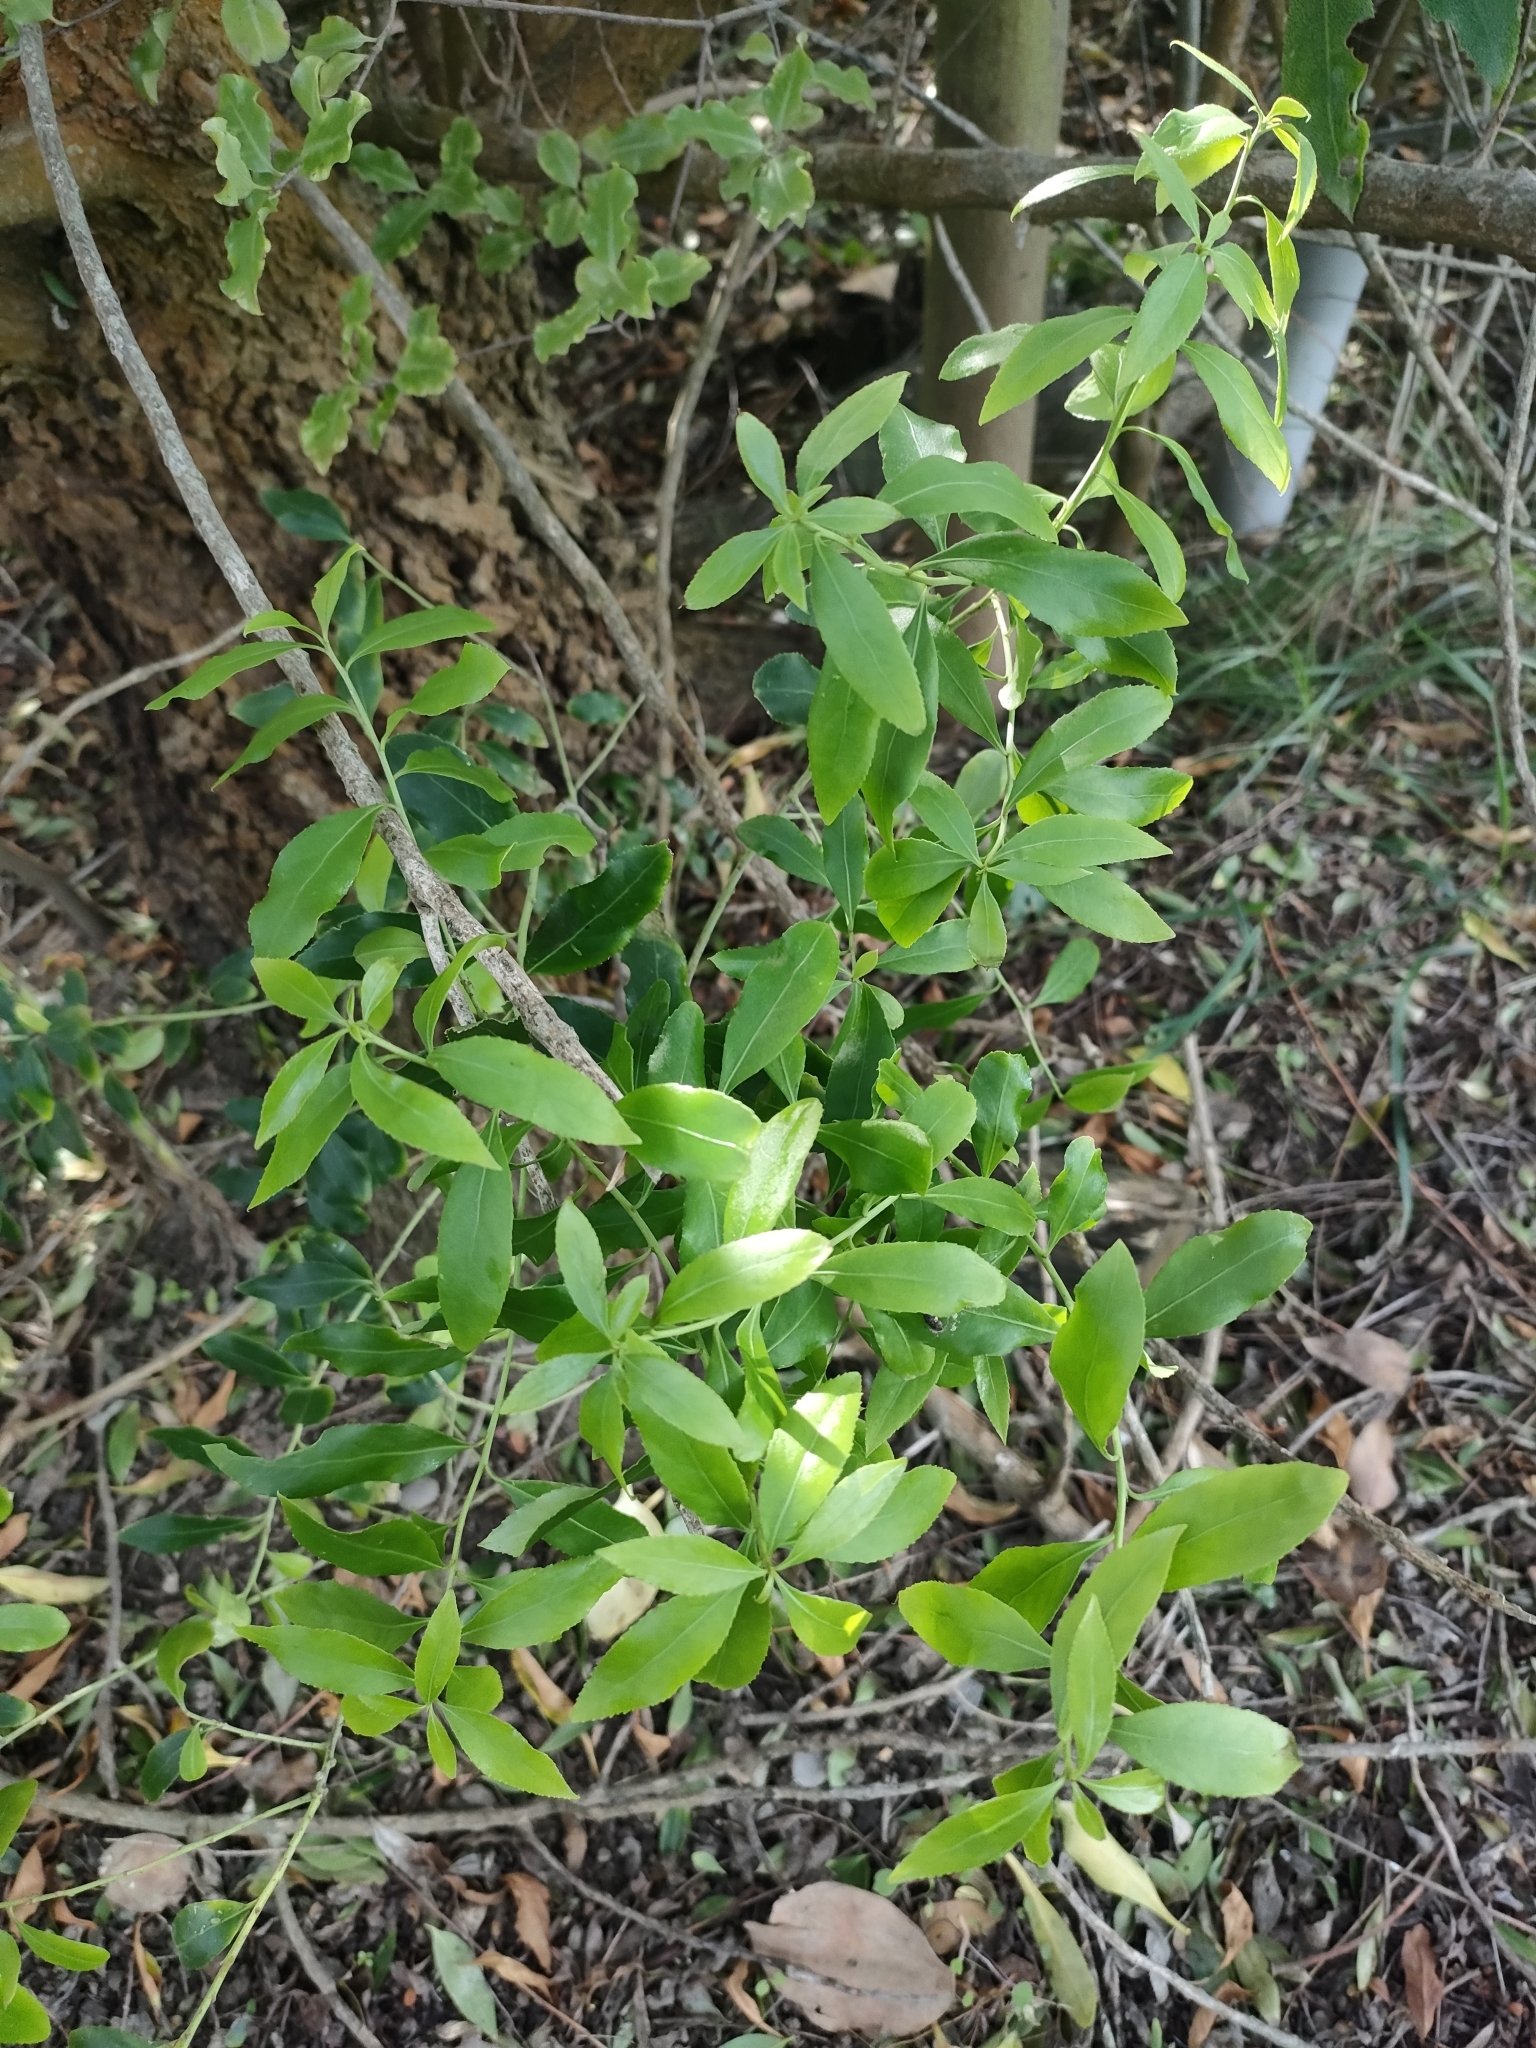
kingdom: Plantae
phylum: Tracheophyta
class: Magnoliopsida
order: Celastrales
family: Celastraceae
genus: Maytenus
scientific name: Maytenus boaria
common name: Mayten
